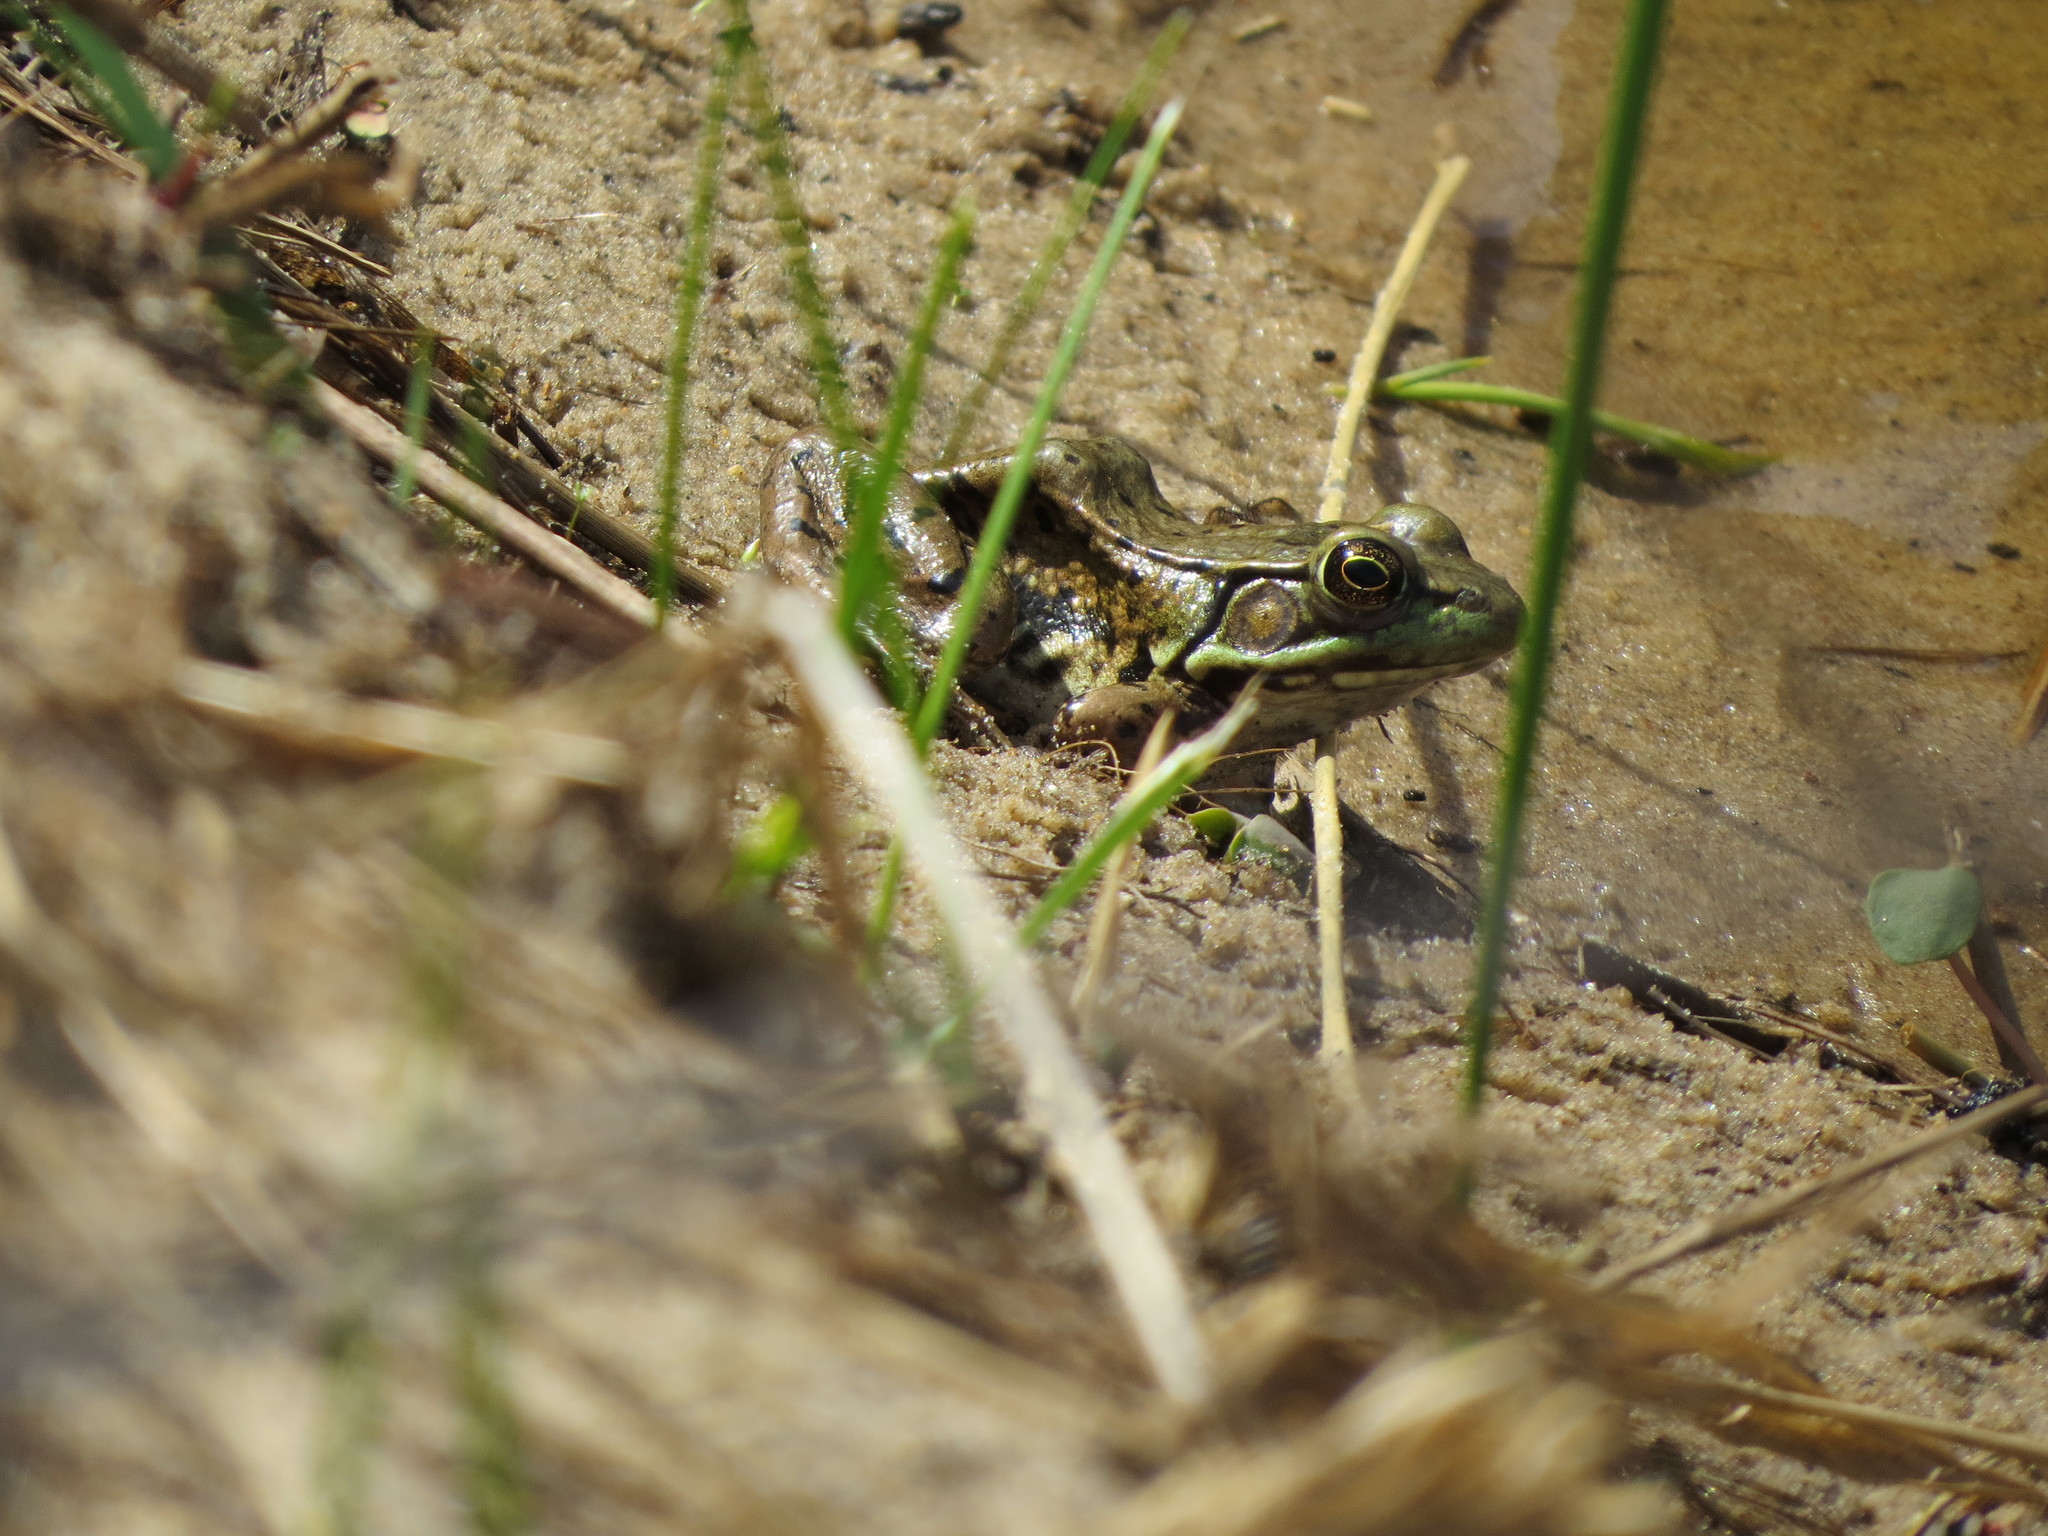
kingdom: Animalia
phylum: Chordata
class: Amphibia
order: Anura
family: Ranidae
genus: Lithobates
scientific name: Lithobates clamitans
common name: Green frog
